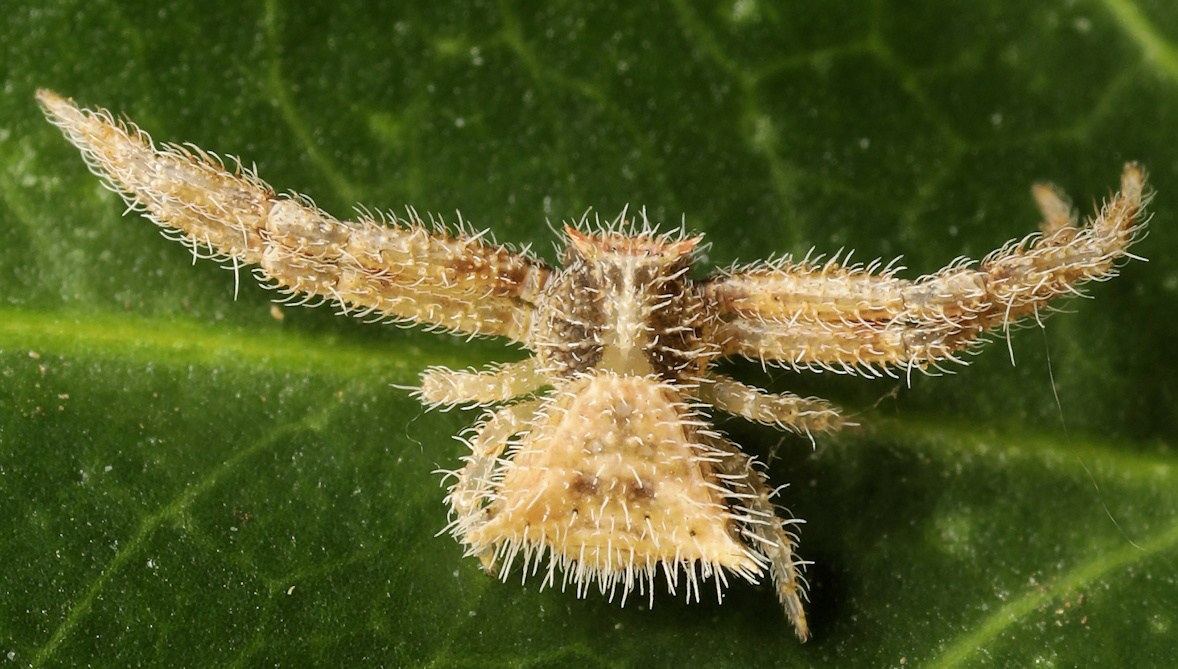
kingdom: Animalia
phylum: Arthropoda
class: Arachnida
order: Araneae
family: Thomisidae
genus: Thomisus
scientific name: Thomisus spiculosus
